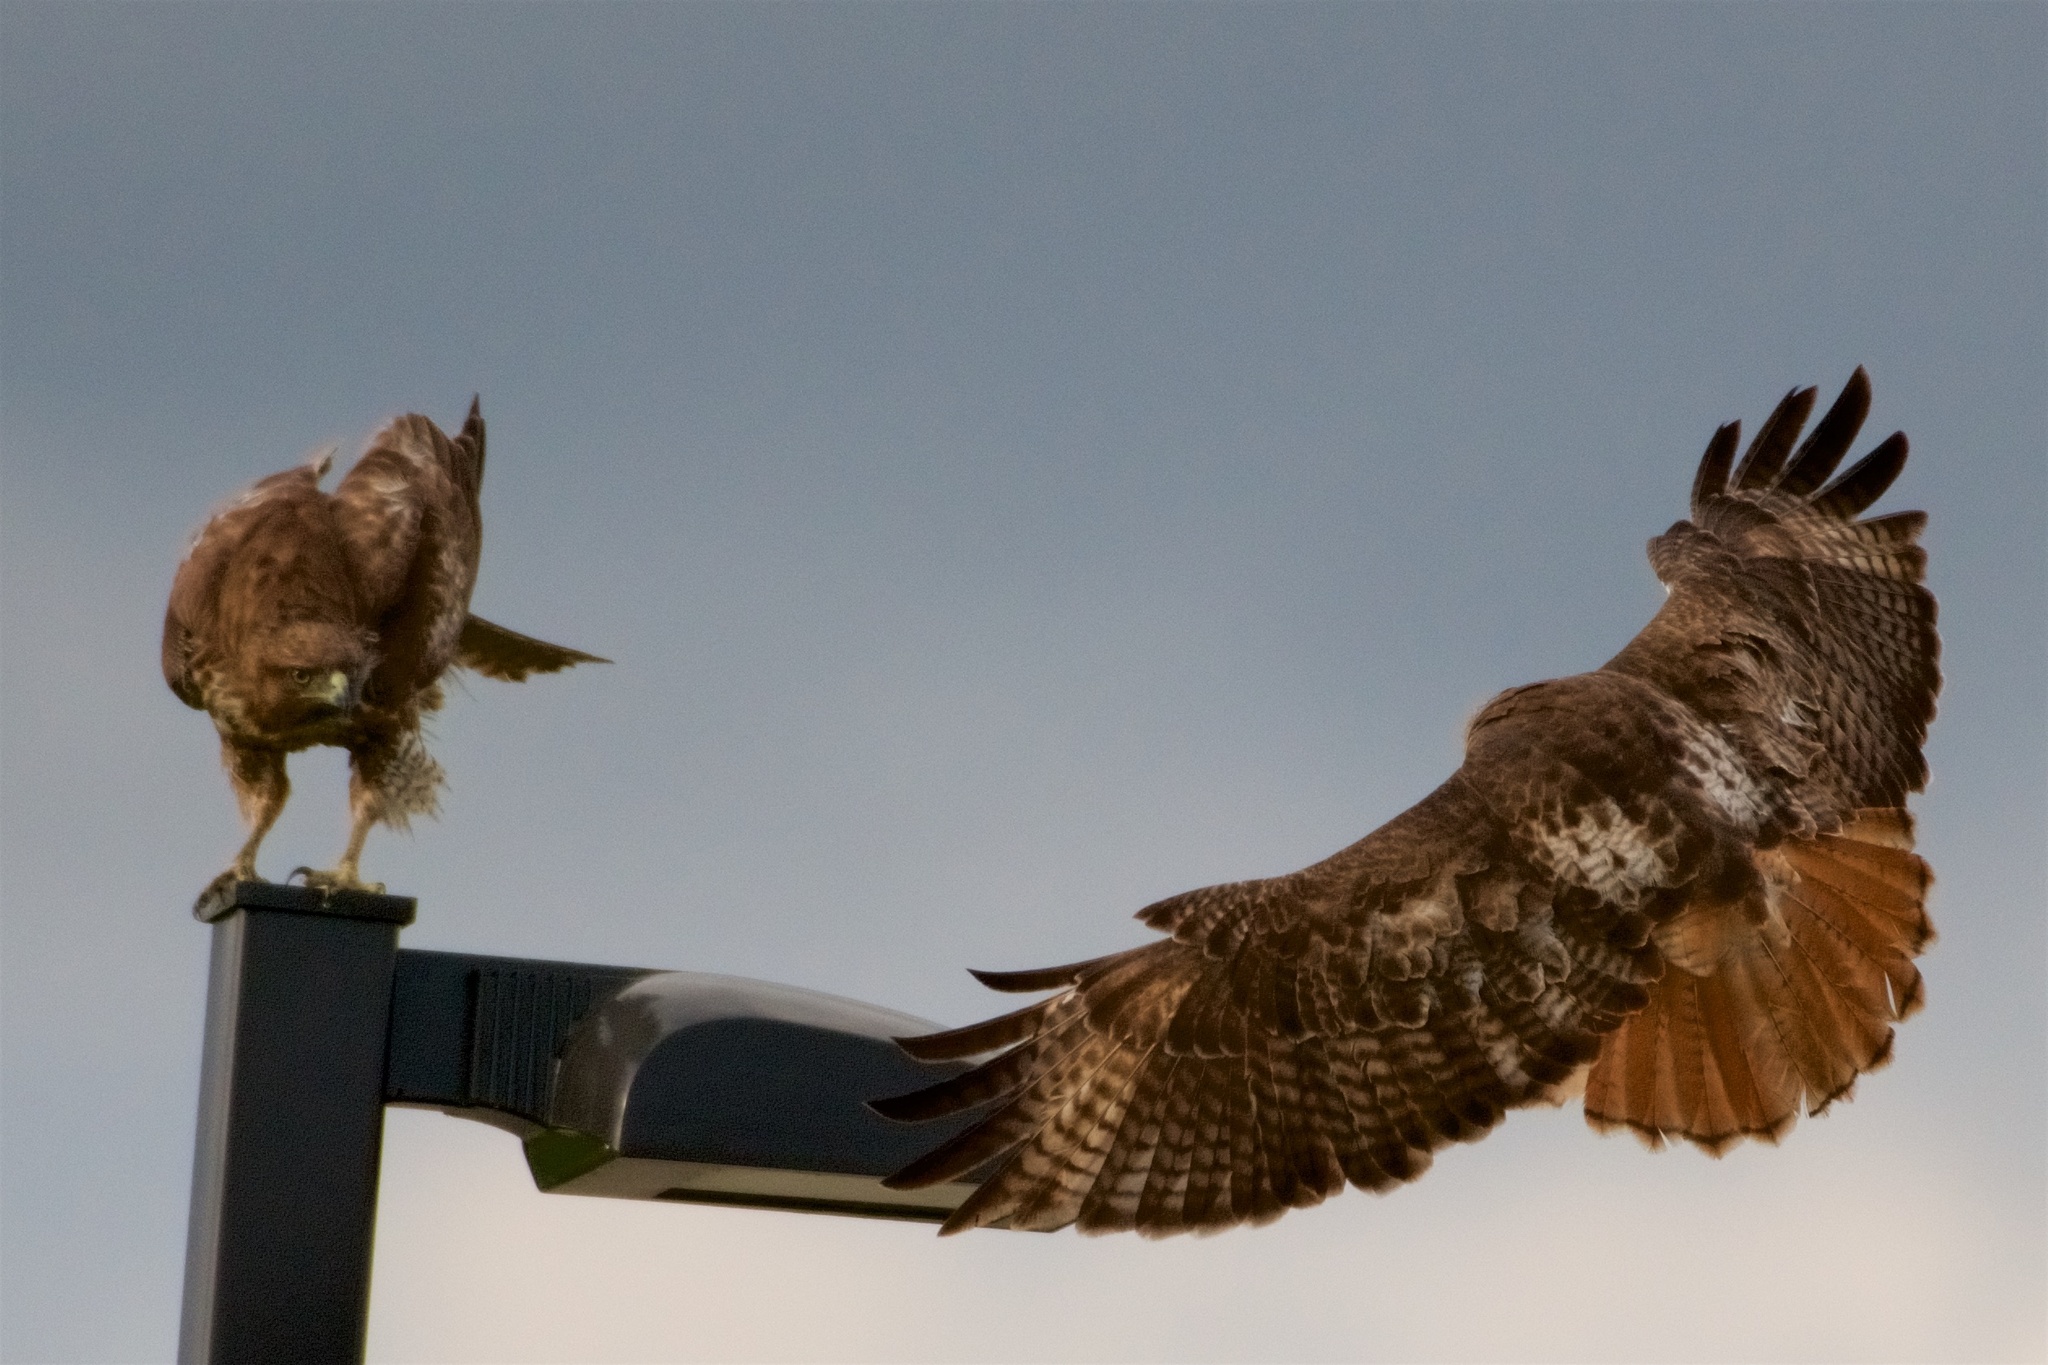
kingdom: Animalia
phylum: Chordata
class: Aves
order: Accipitriformes
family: Accipitridae
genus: Buteo
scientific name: Buteo jamaicensis
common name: Red-tailed hawk
